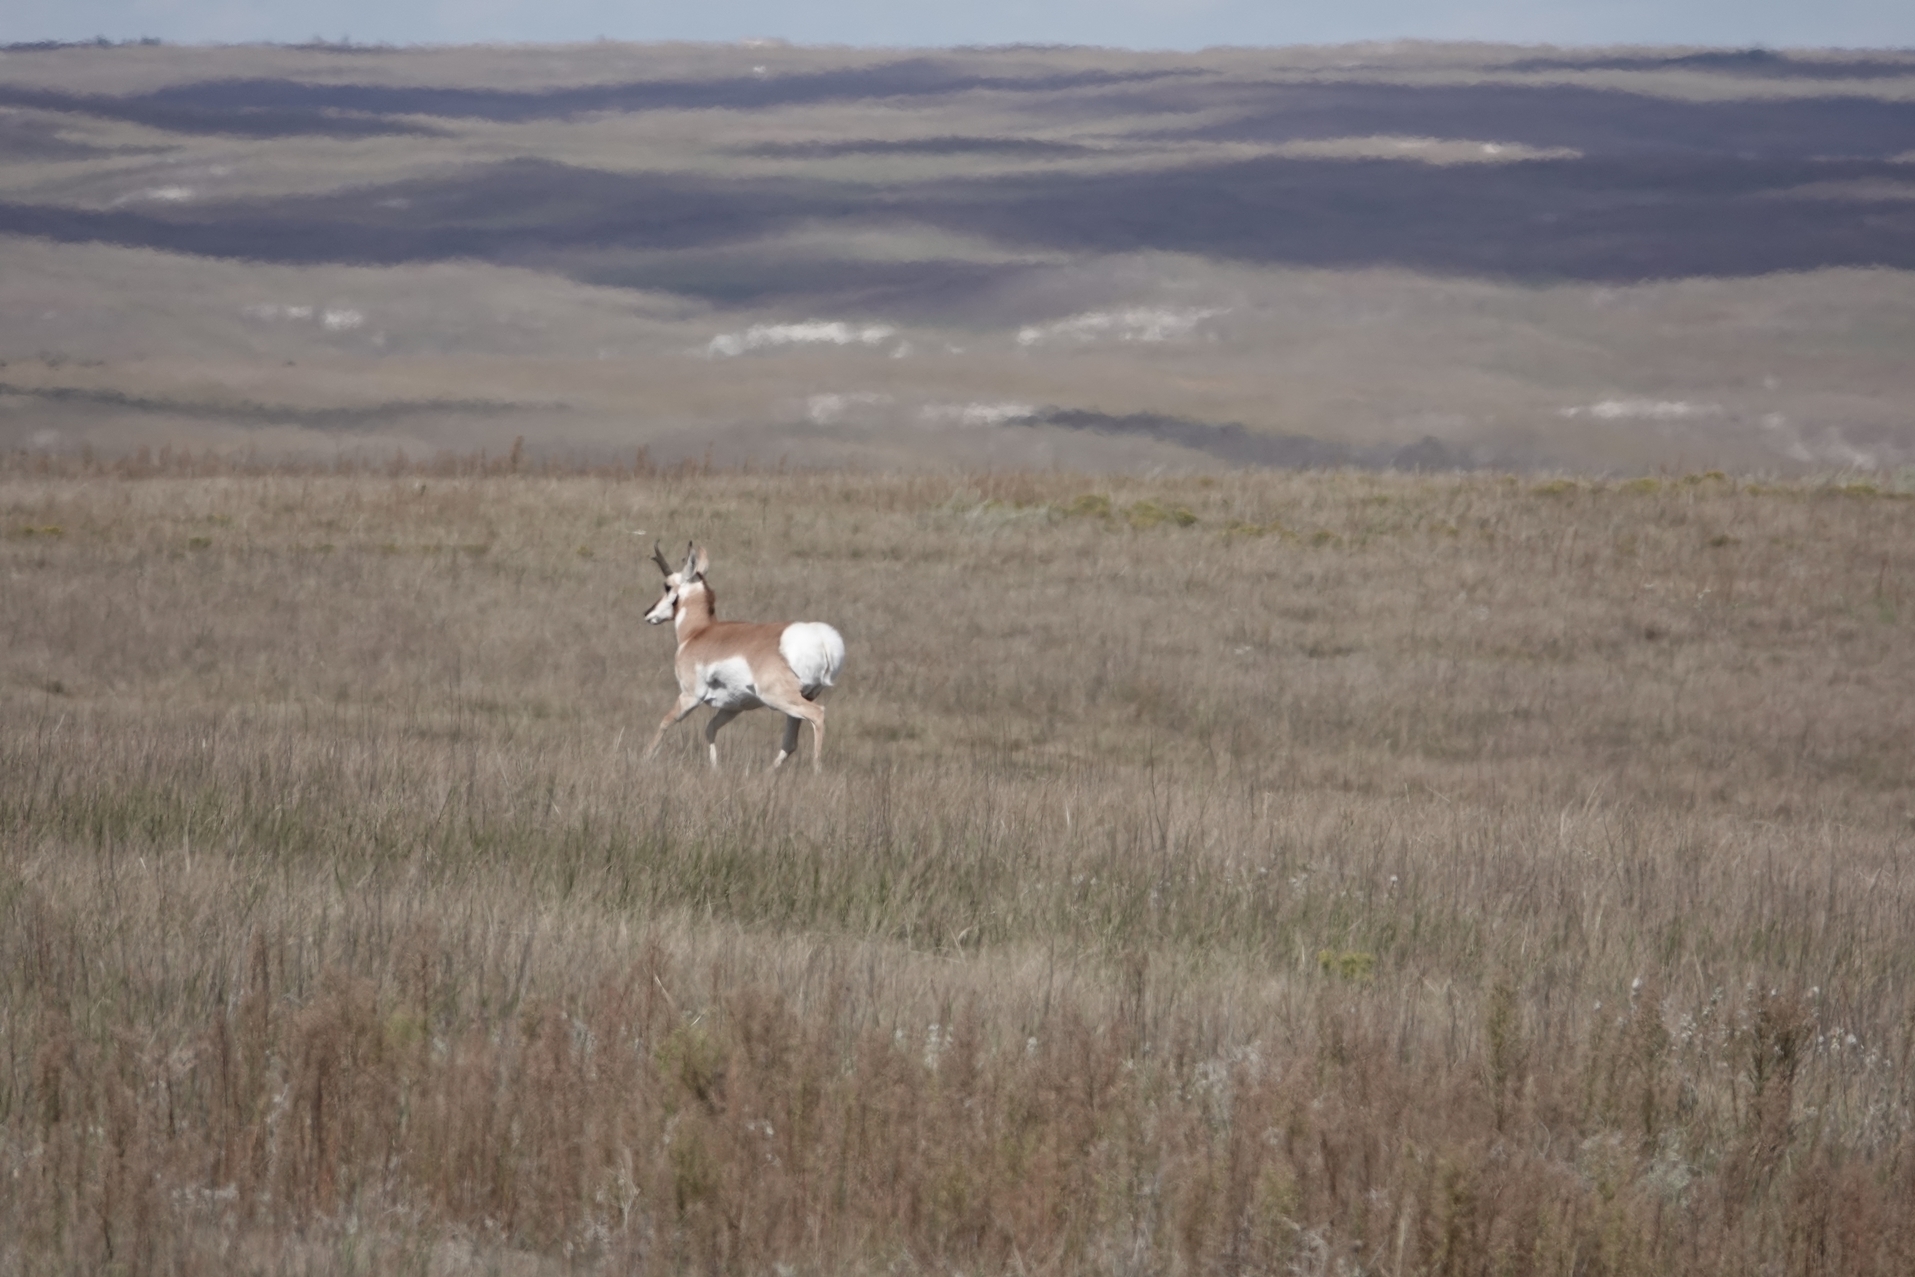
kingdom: Animalia
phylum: Chordata
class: Mammalia
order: Artiodactyla
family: Antilocapridae
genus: Antilocapra
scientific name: Antilocapra americana
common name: Pronghorn
